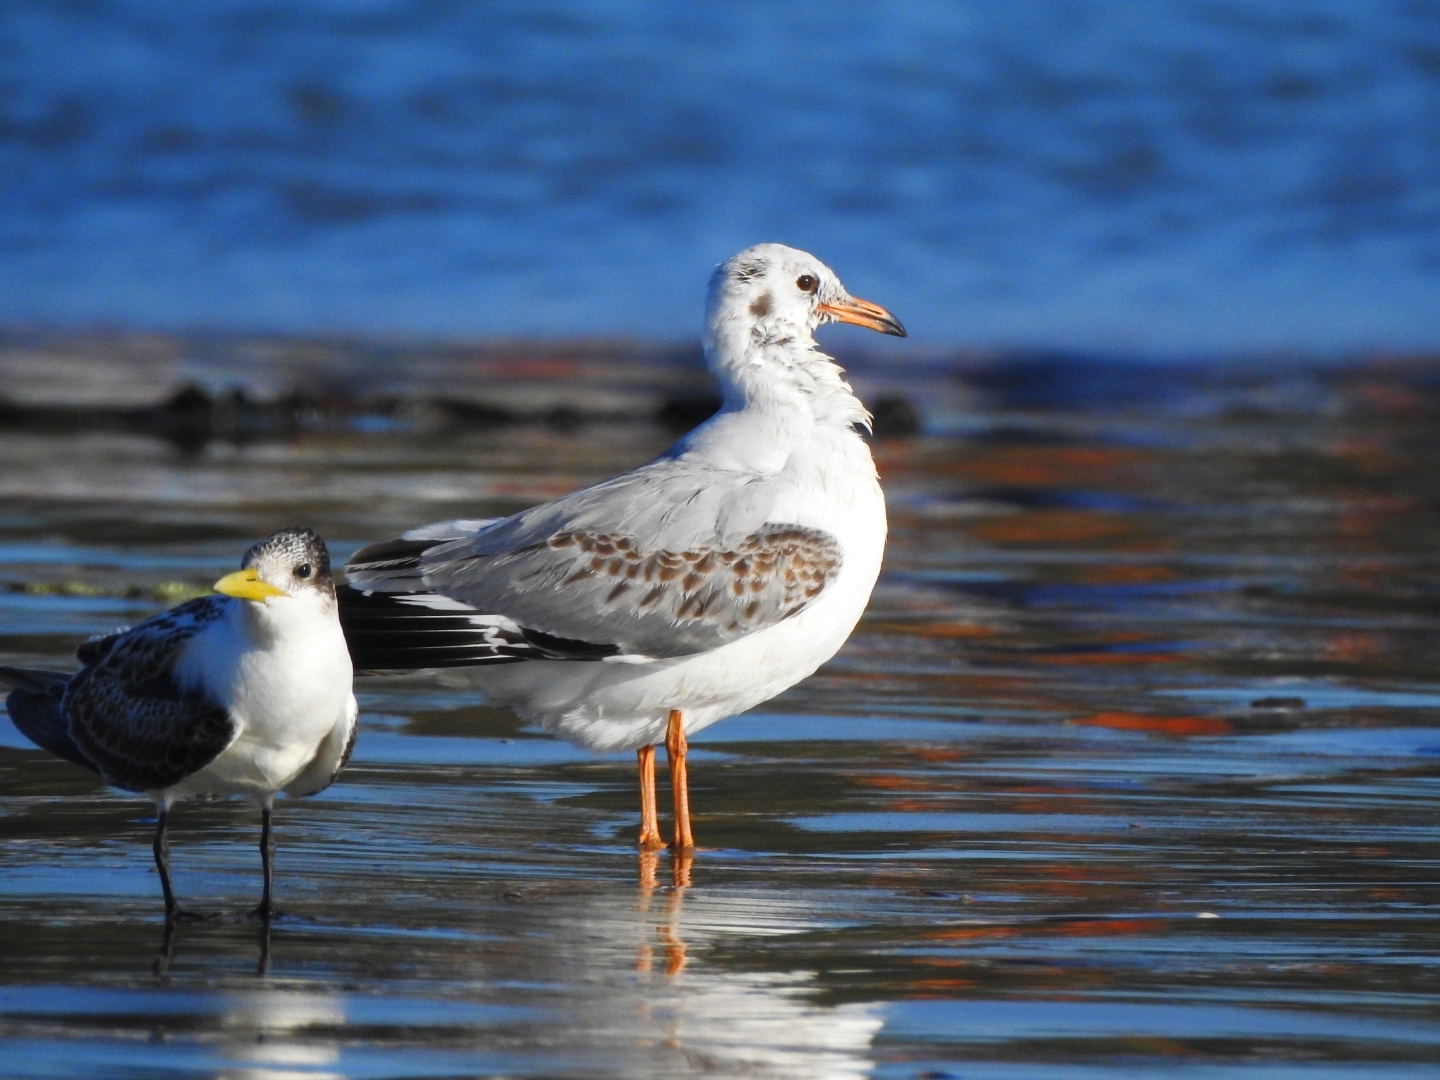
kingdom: Animalia
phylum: Chordata
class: Aves
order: Charadriiformes
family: Laridae
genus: Chroicocephalus
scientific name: Chroicocephalus brunnicephalus
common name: Brown-headed gull
